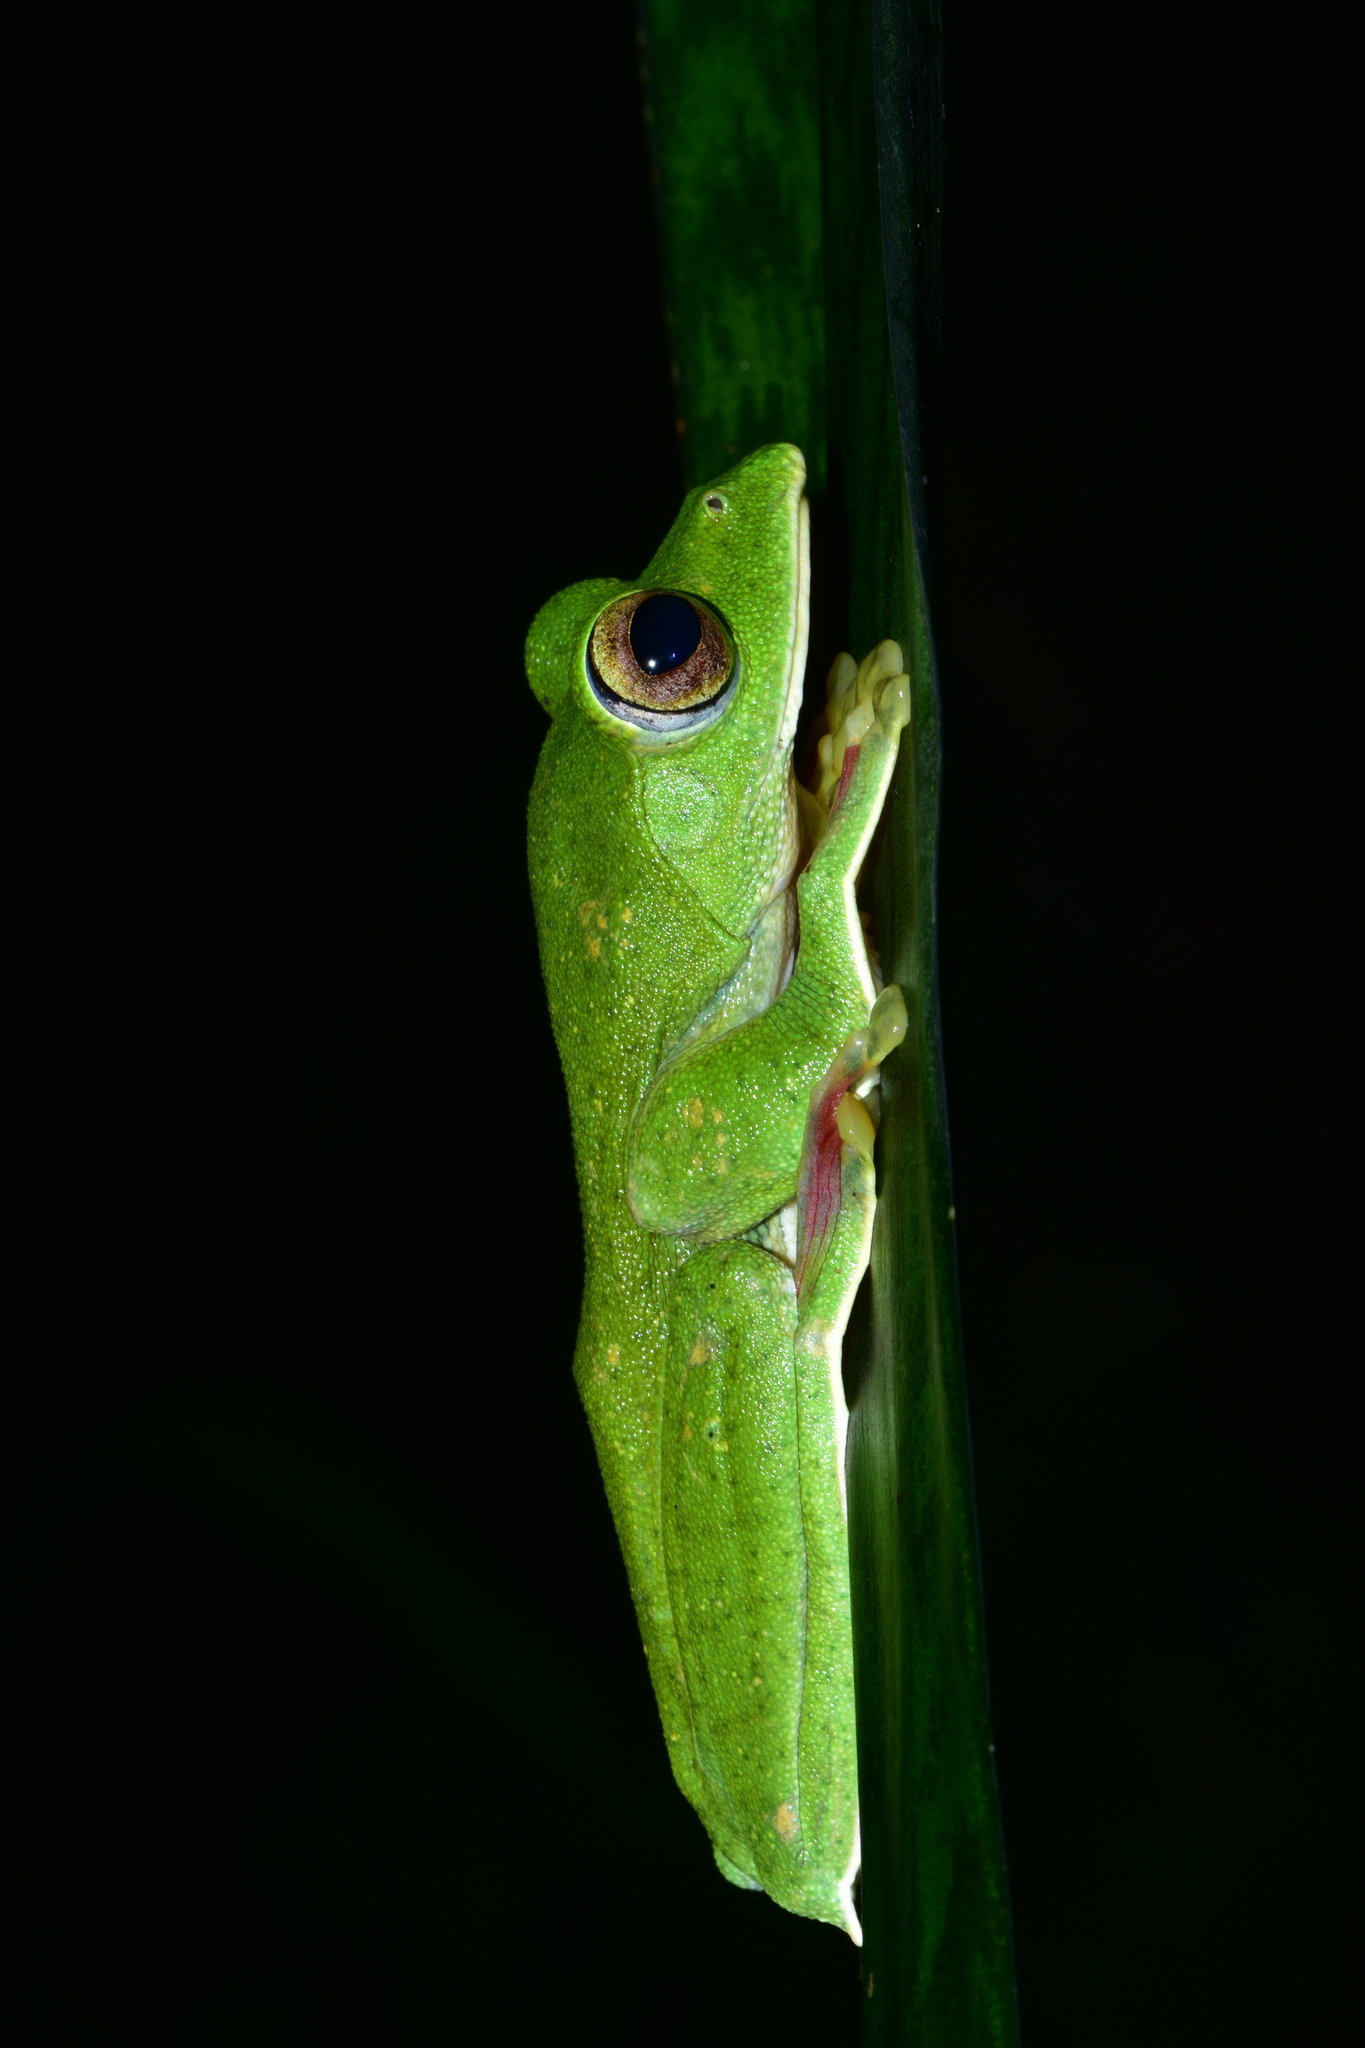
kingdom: Animalia
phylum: Chordata
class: Amphibia
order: Anura
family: Rhacophoridae
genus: Rhacophorus
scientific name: Rhacophorus malabaricus
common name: Malabar gliding frog
